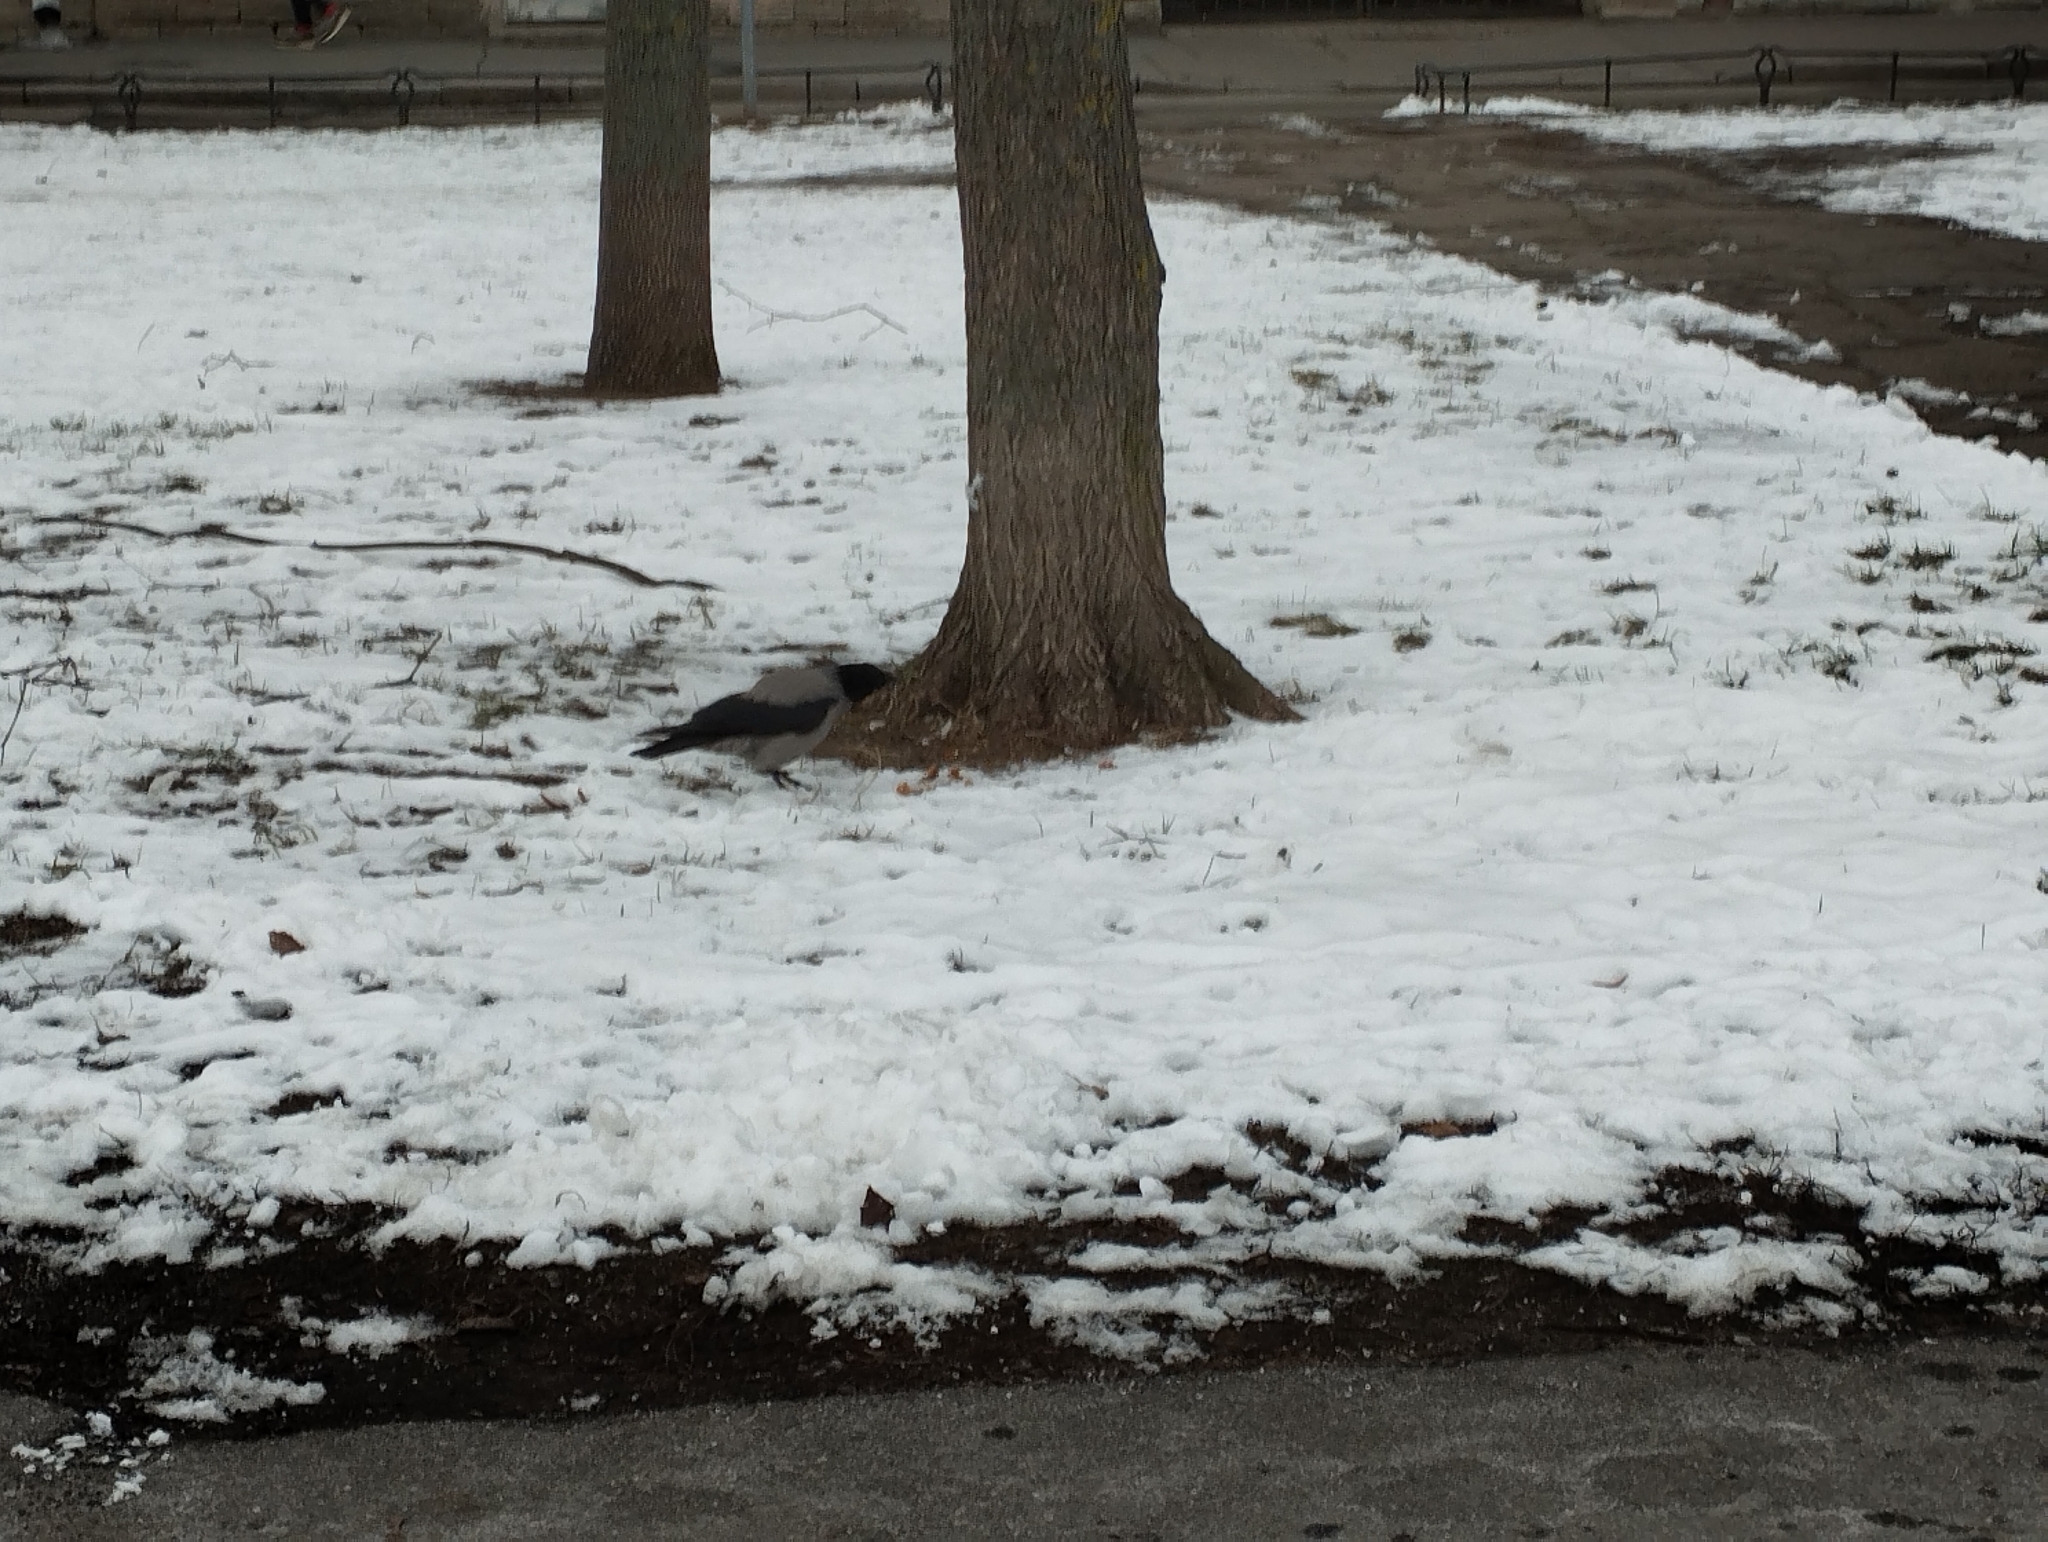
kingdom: Animalia
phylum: Chordata
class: Aves
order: Passeriformes
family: Corvidae
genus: Corvus
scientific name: Corvus cornix
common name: Hooded crow
